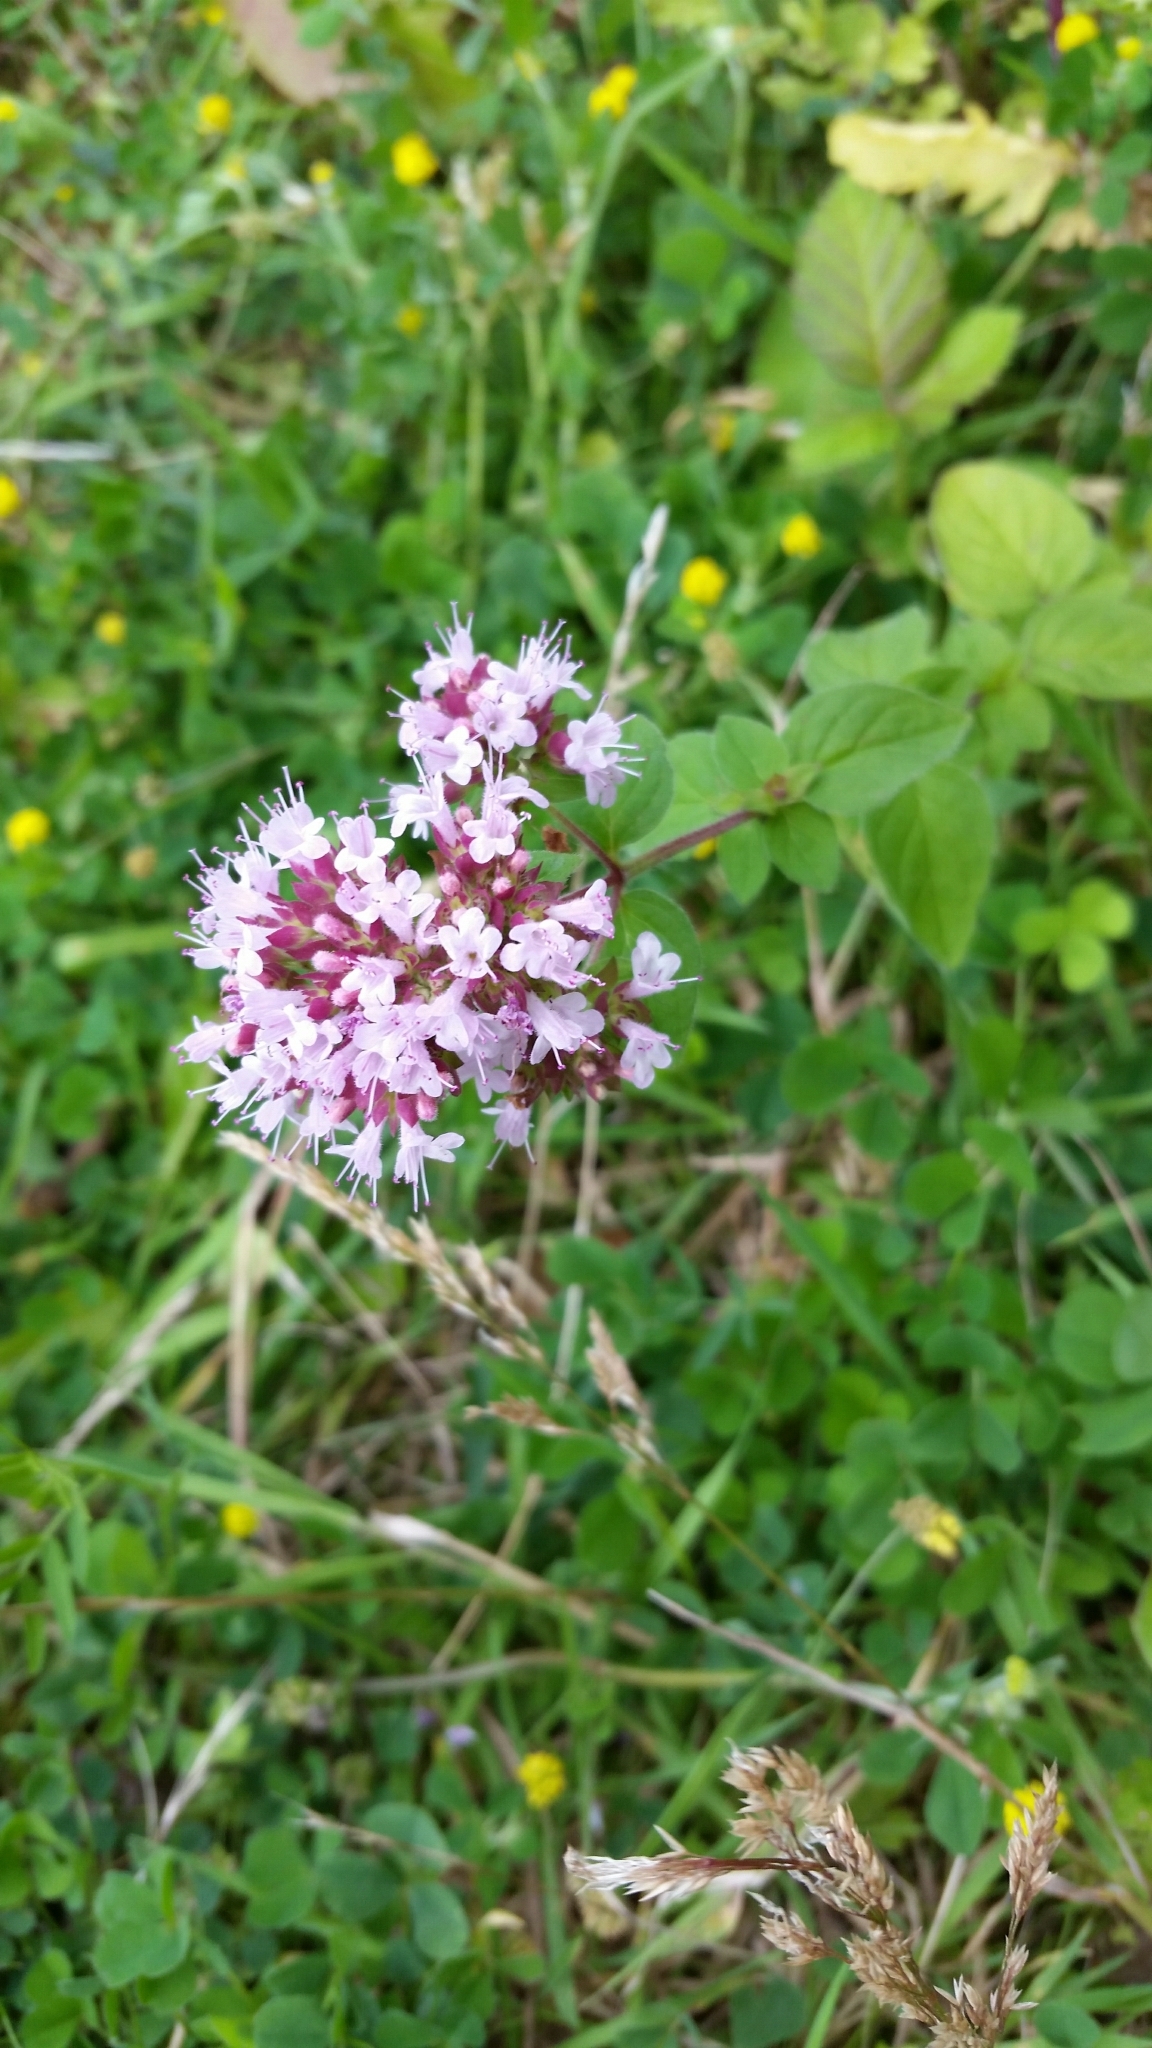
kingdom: Plantae
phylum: Tracheophyta
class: Magnoliopsida
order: Lamiales
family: Lamiaceae
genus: Origanum
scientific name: Origanum vulgare
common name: Wild marjoram
